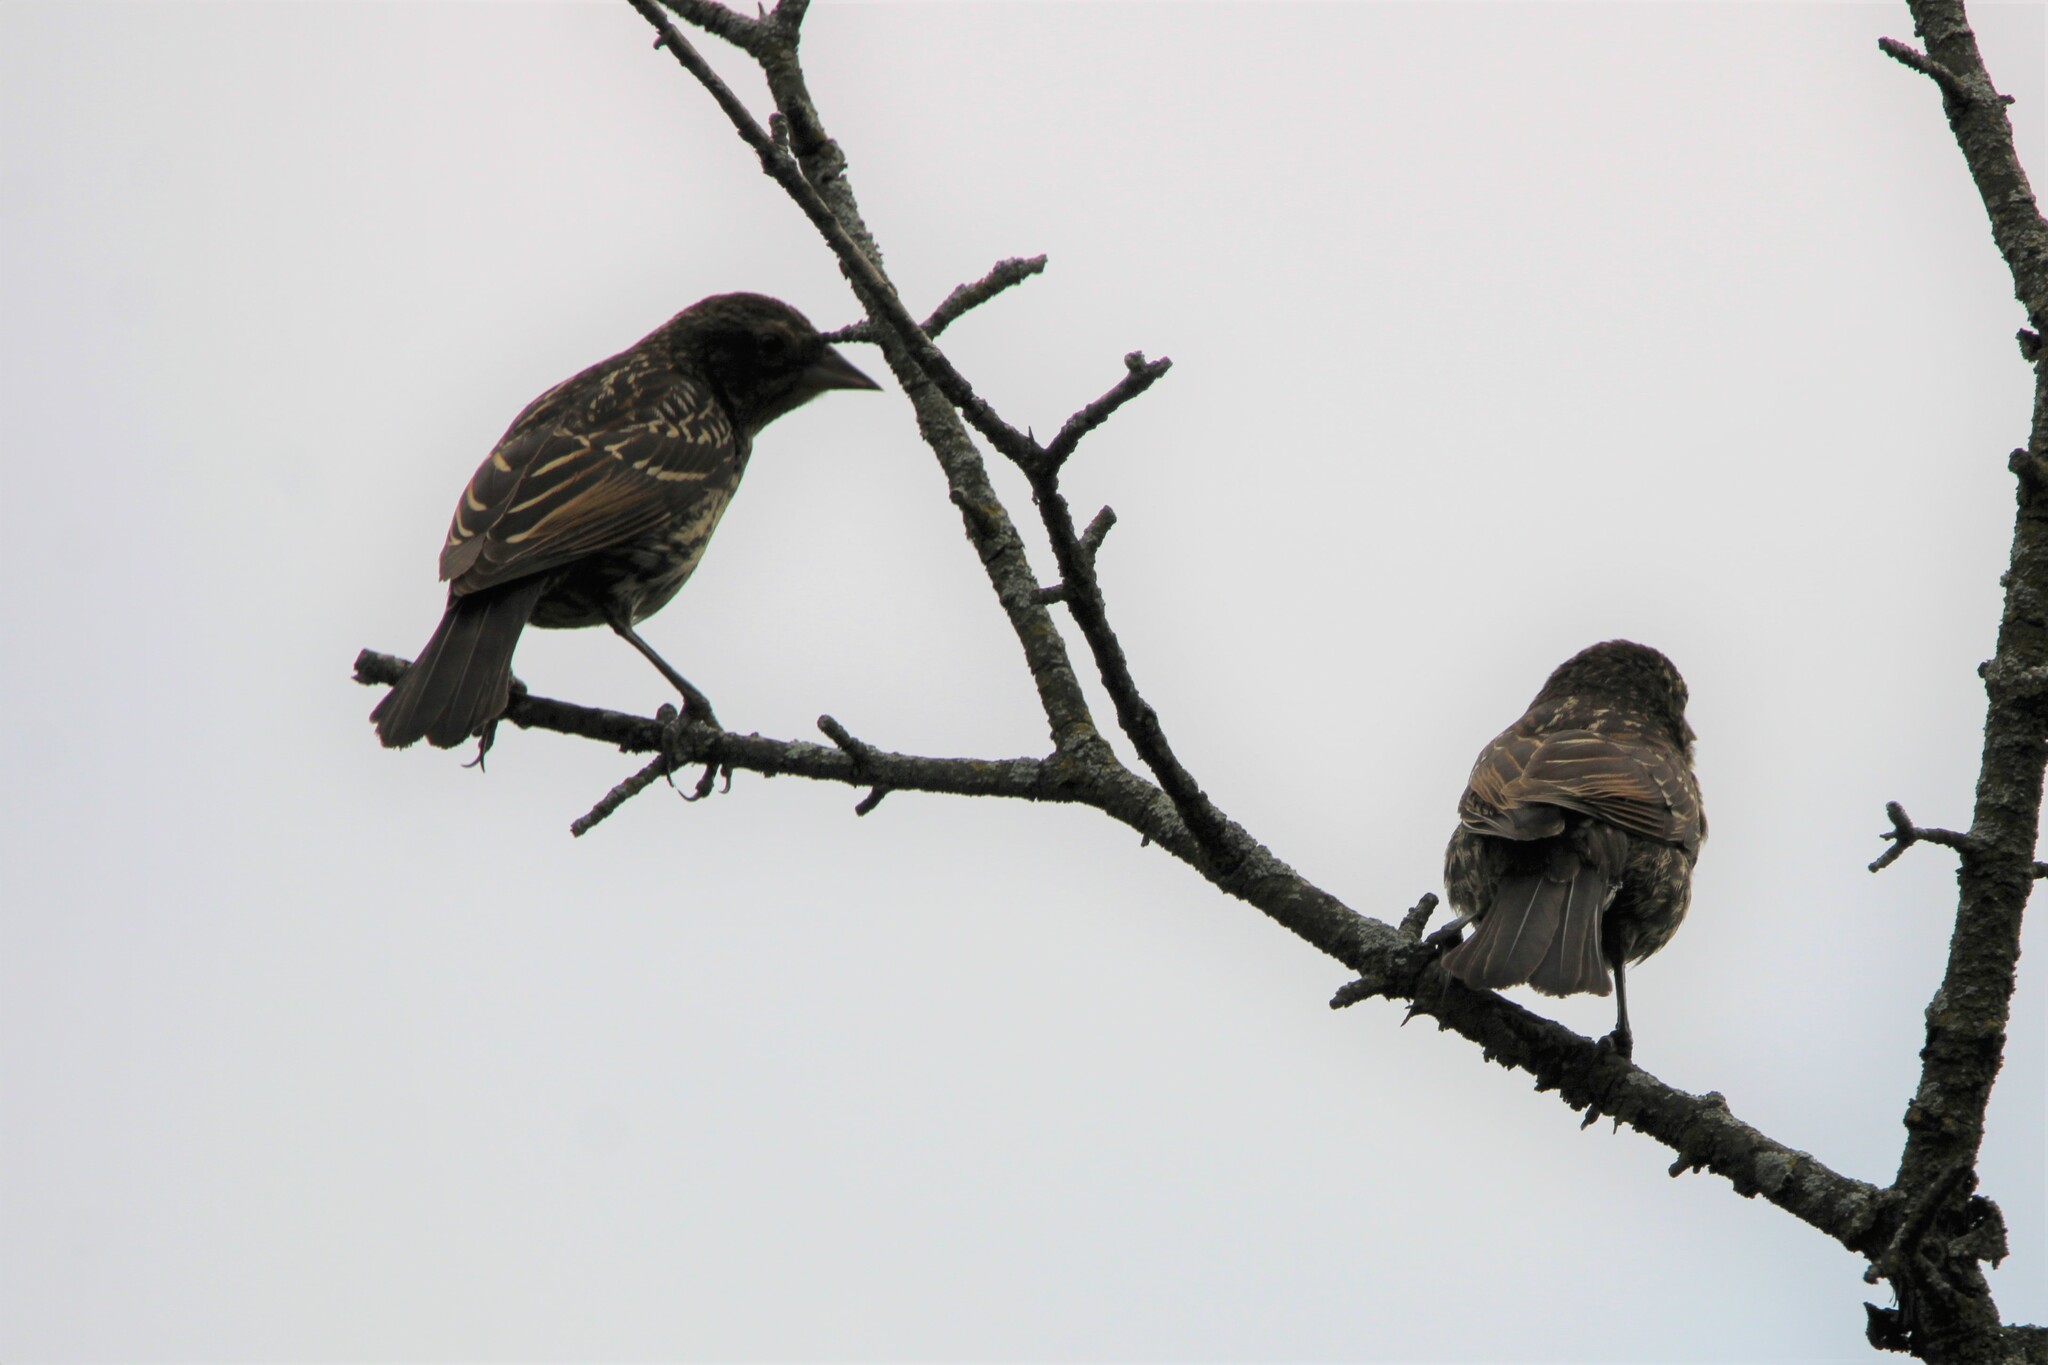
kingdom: Animalia
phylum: Chordata
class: Aves
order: Passeriformes
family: Icteridae
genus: Agelaius
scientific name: Agelaius phoeniceus
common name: Red-winged blackbird
